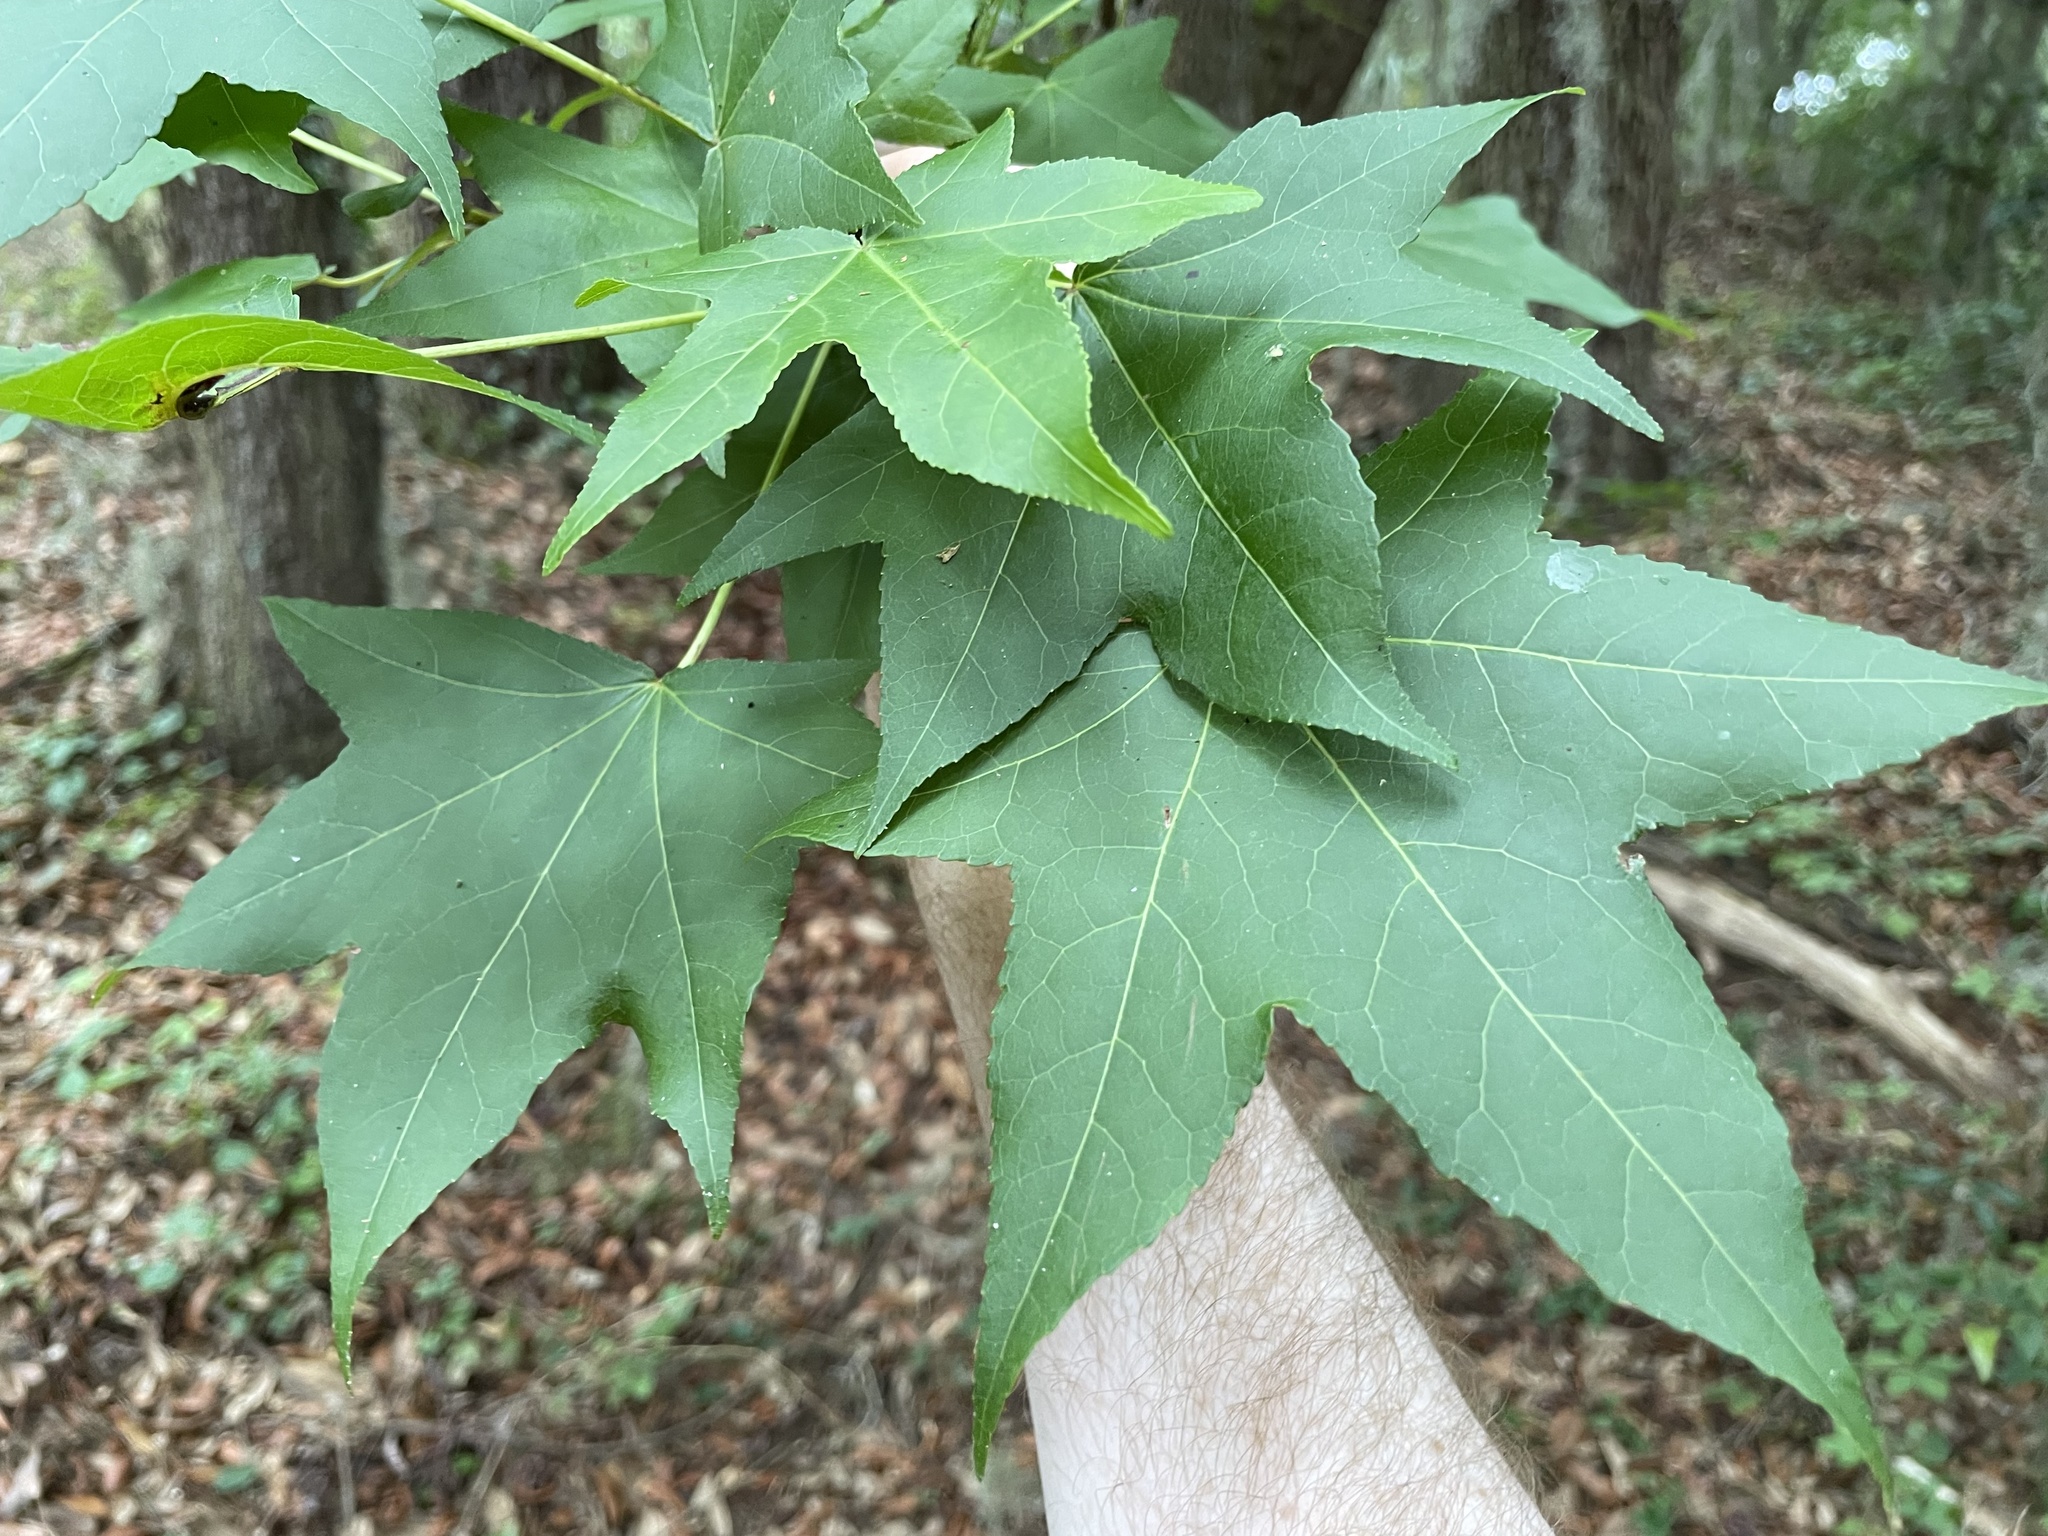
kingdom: Plantae
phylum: Tracheophyta
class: Magnoliopsida
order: Saxifragales
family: Altingiaceae
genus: Liquidambar
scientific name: Liquidambar styraciflua
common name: Sweet gum
